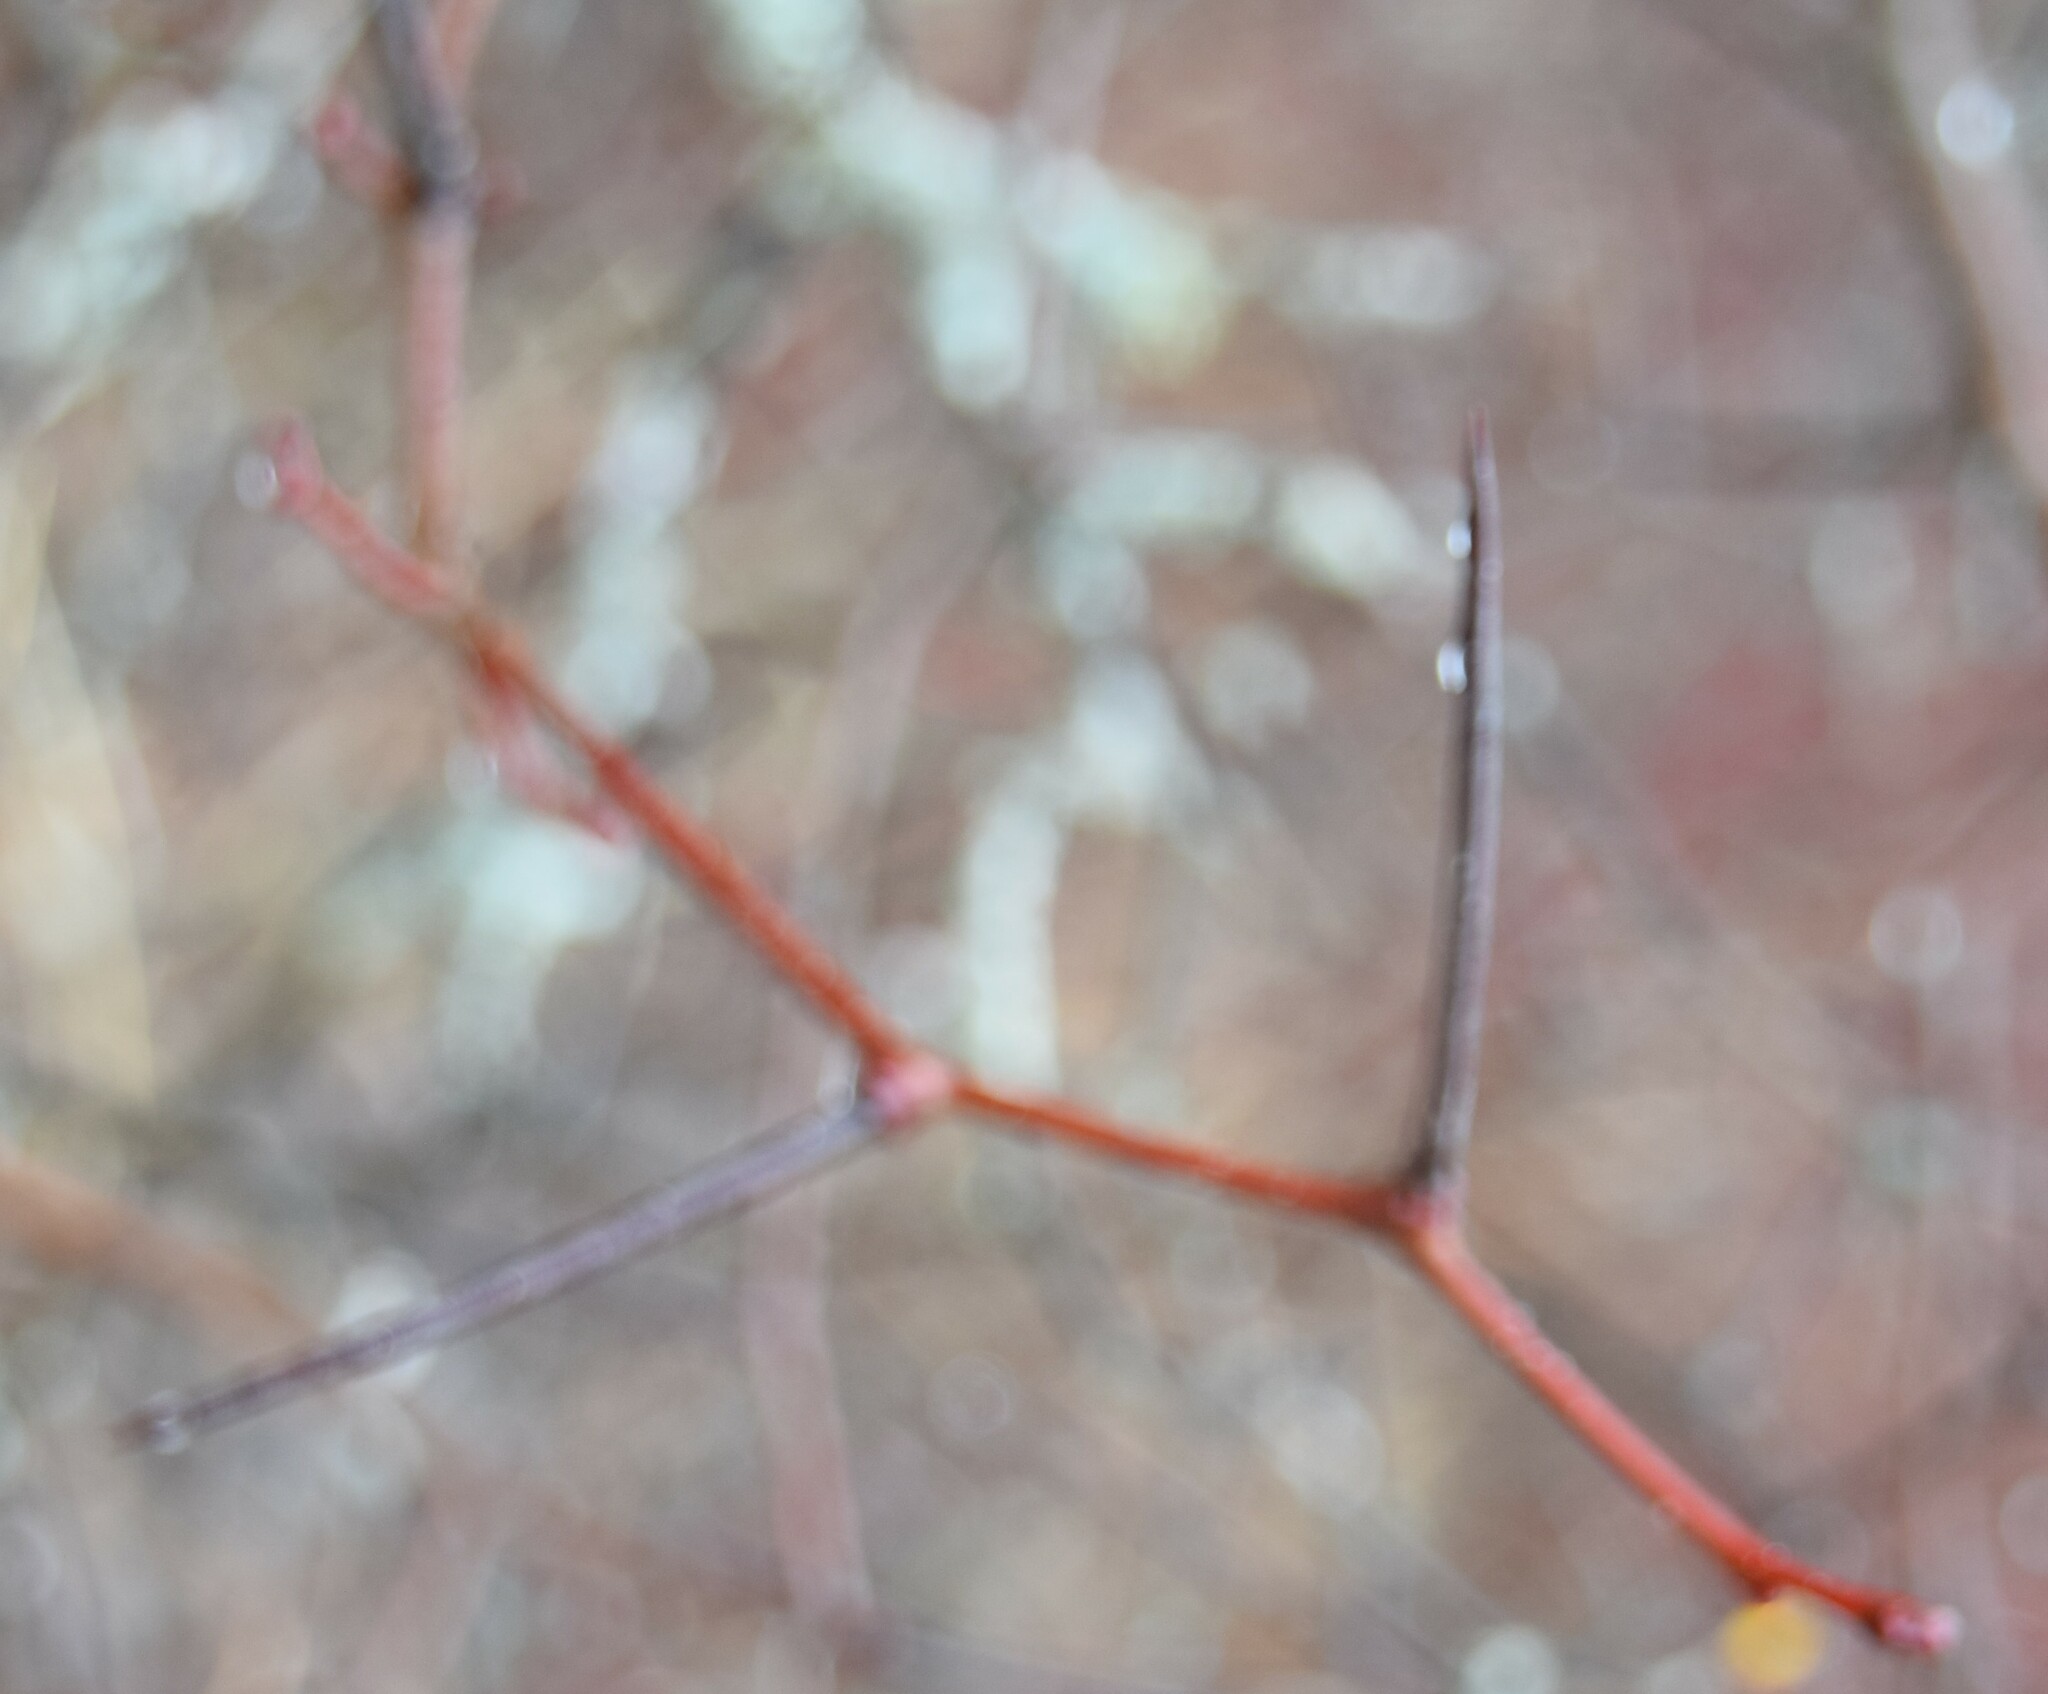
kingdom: Plantae
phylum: Tracheophyta
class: Magnoliopsida
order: Rosales
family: Rosaceae
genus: Crataegus
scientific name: Crataegus
